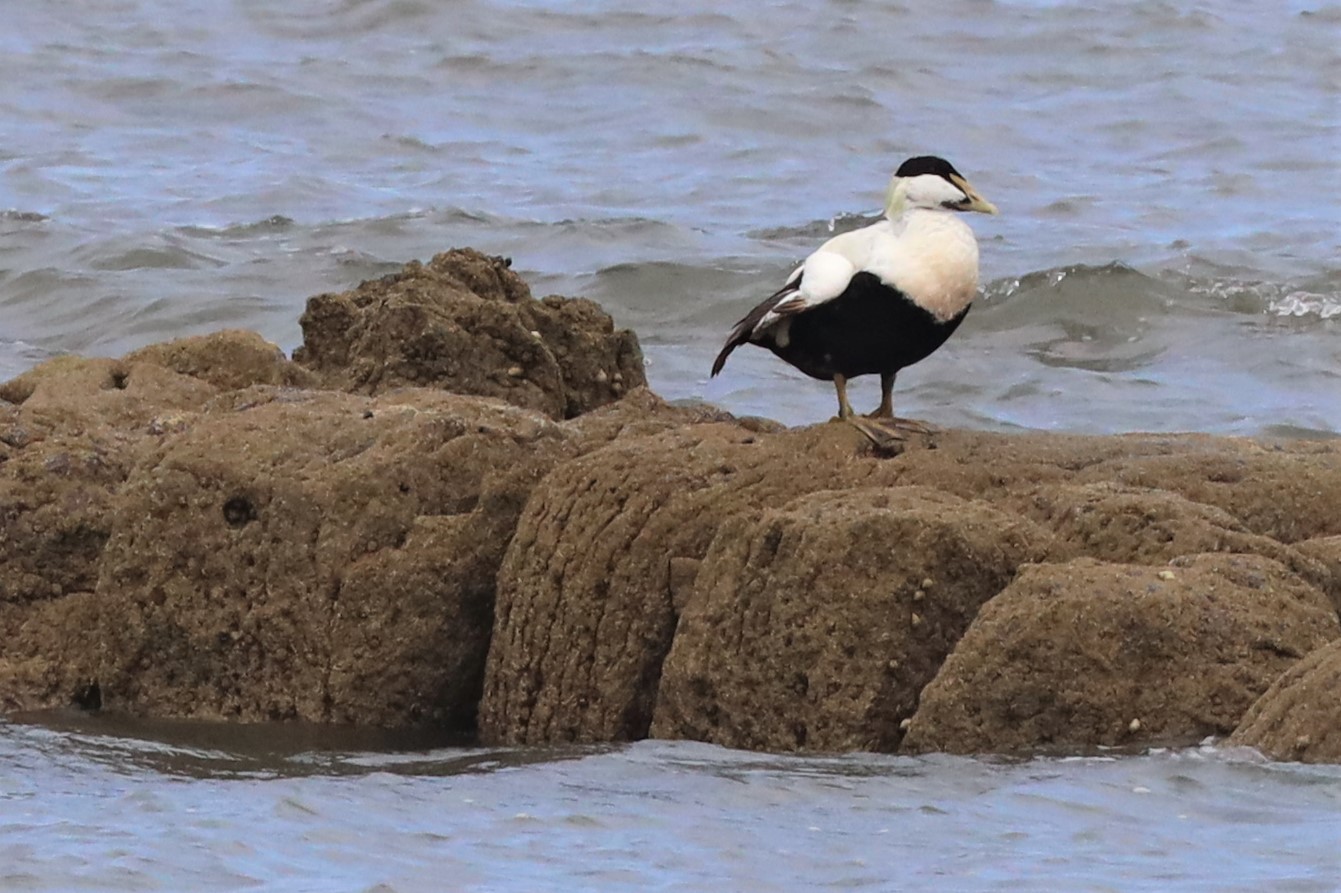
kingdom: Animalia
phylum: Chordata
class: Aves
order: Anseriformes
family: Anatidae
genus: Somateria
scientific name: Somateria mollissima
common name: Common eider
